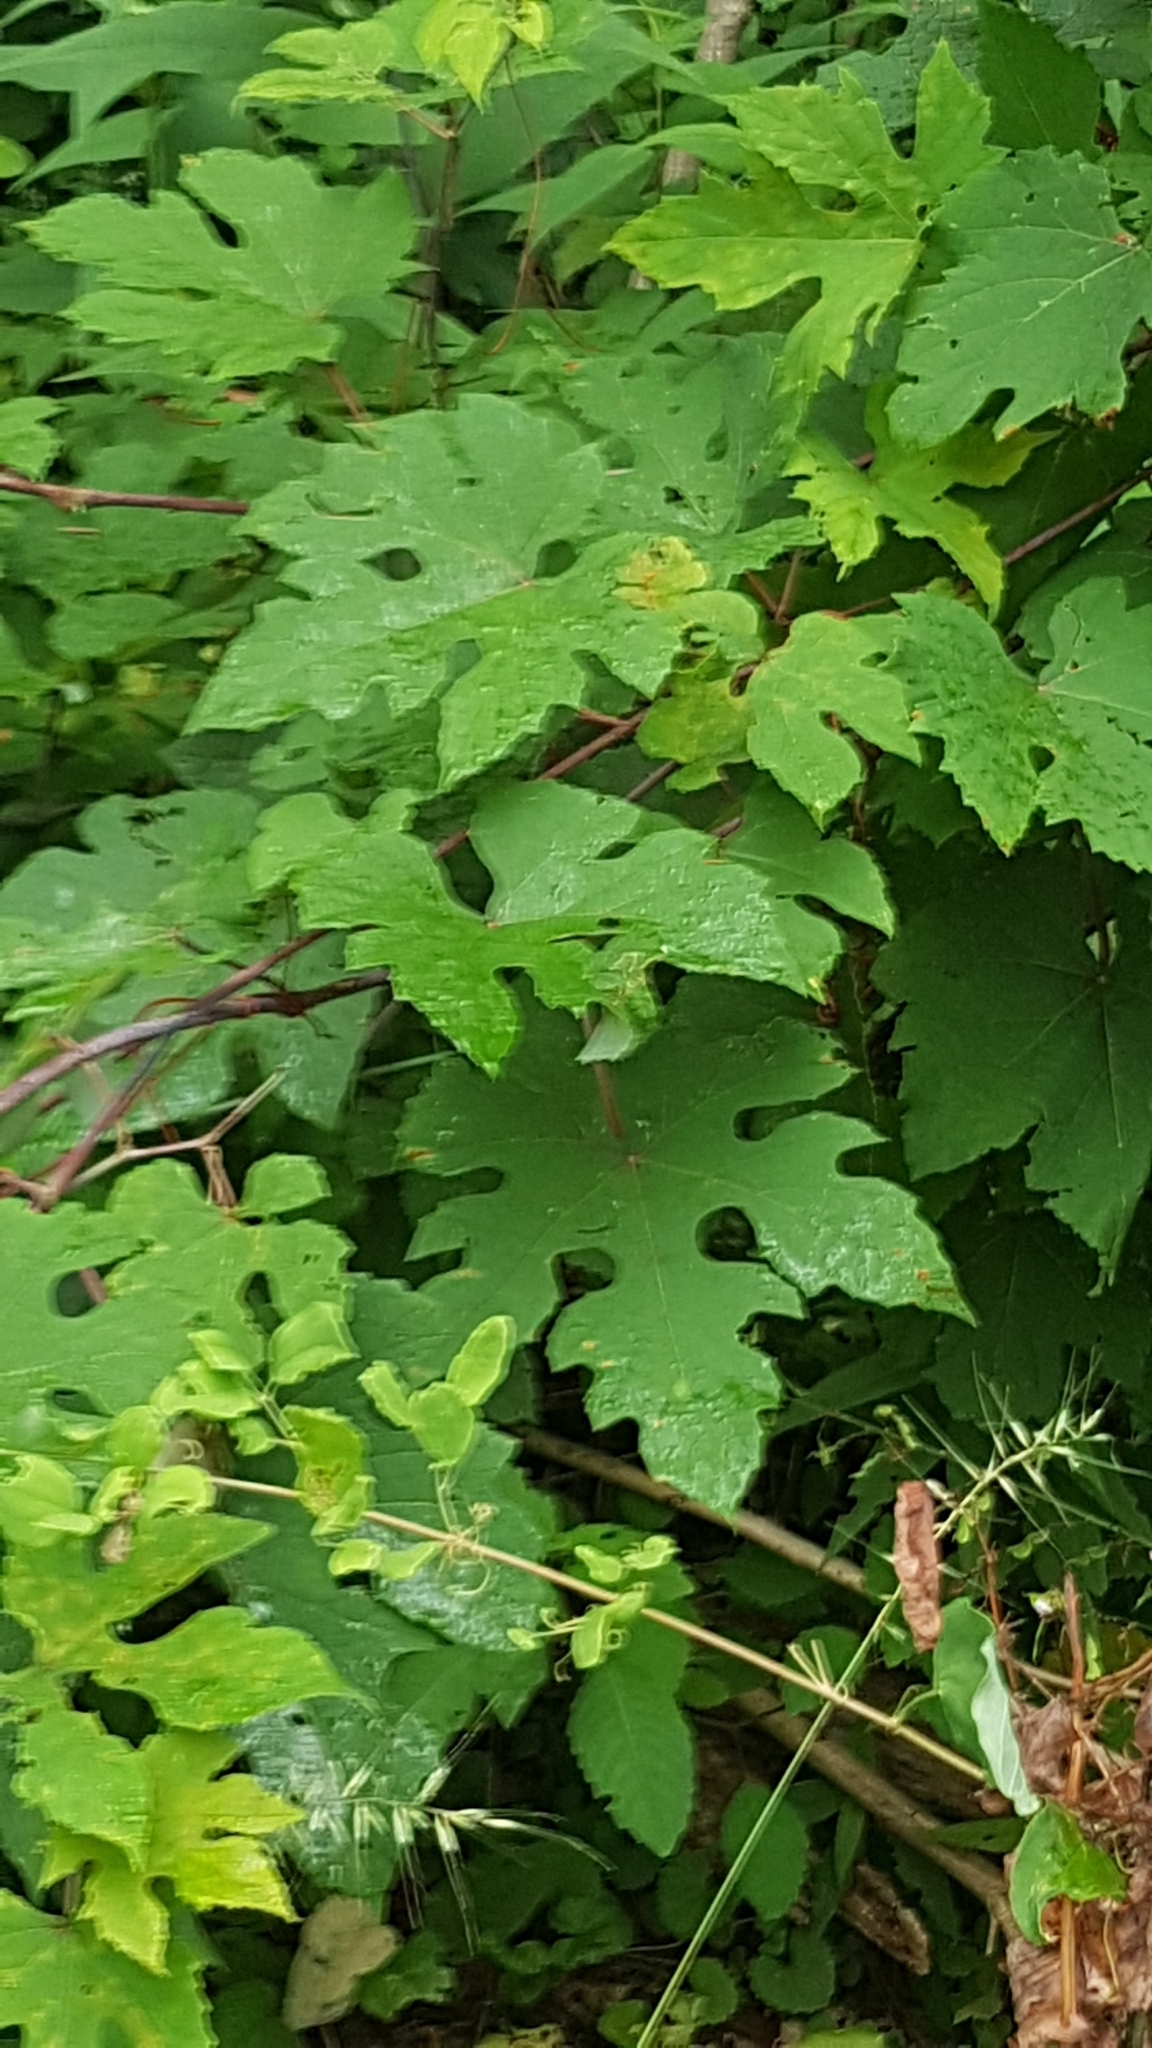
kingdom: Plantae
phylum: Tracheophyta
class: Magnoliopsida
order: Vitales
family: Vitaceae
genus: Vitis
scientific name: Vitis aestivalis
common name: Pigeon grape
